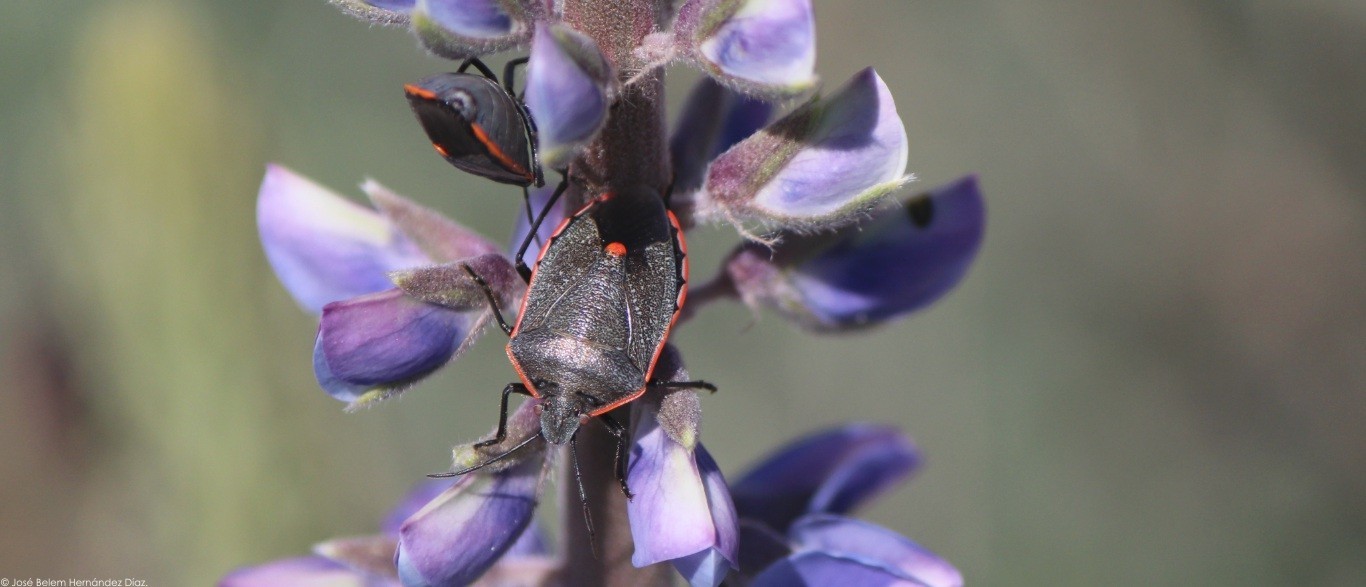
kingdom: Animalia
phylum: Arthropoda
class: Insecta
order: Hemiptera
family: Pentatomidae
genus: Chlorochroa
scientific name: Chlorochroa ligata
